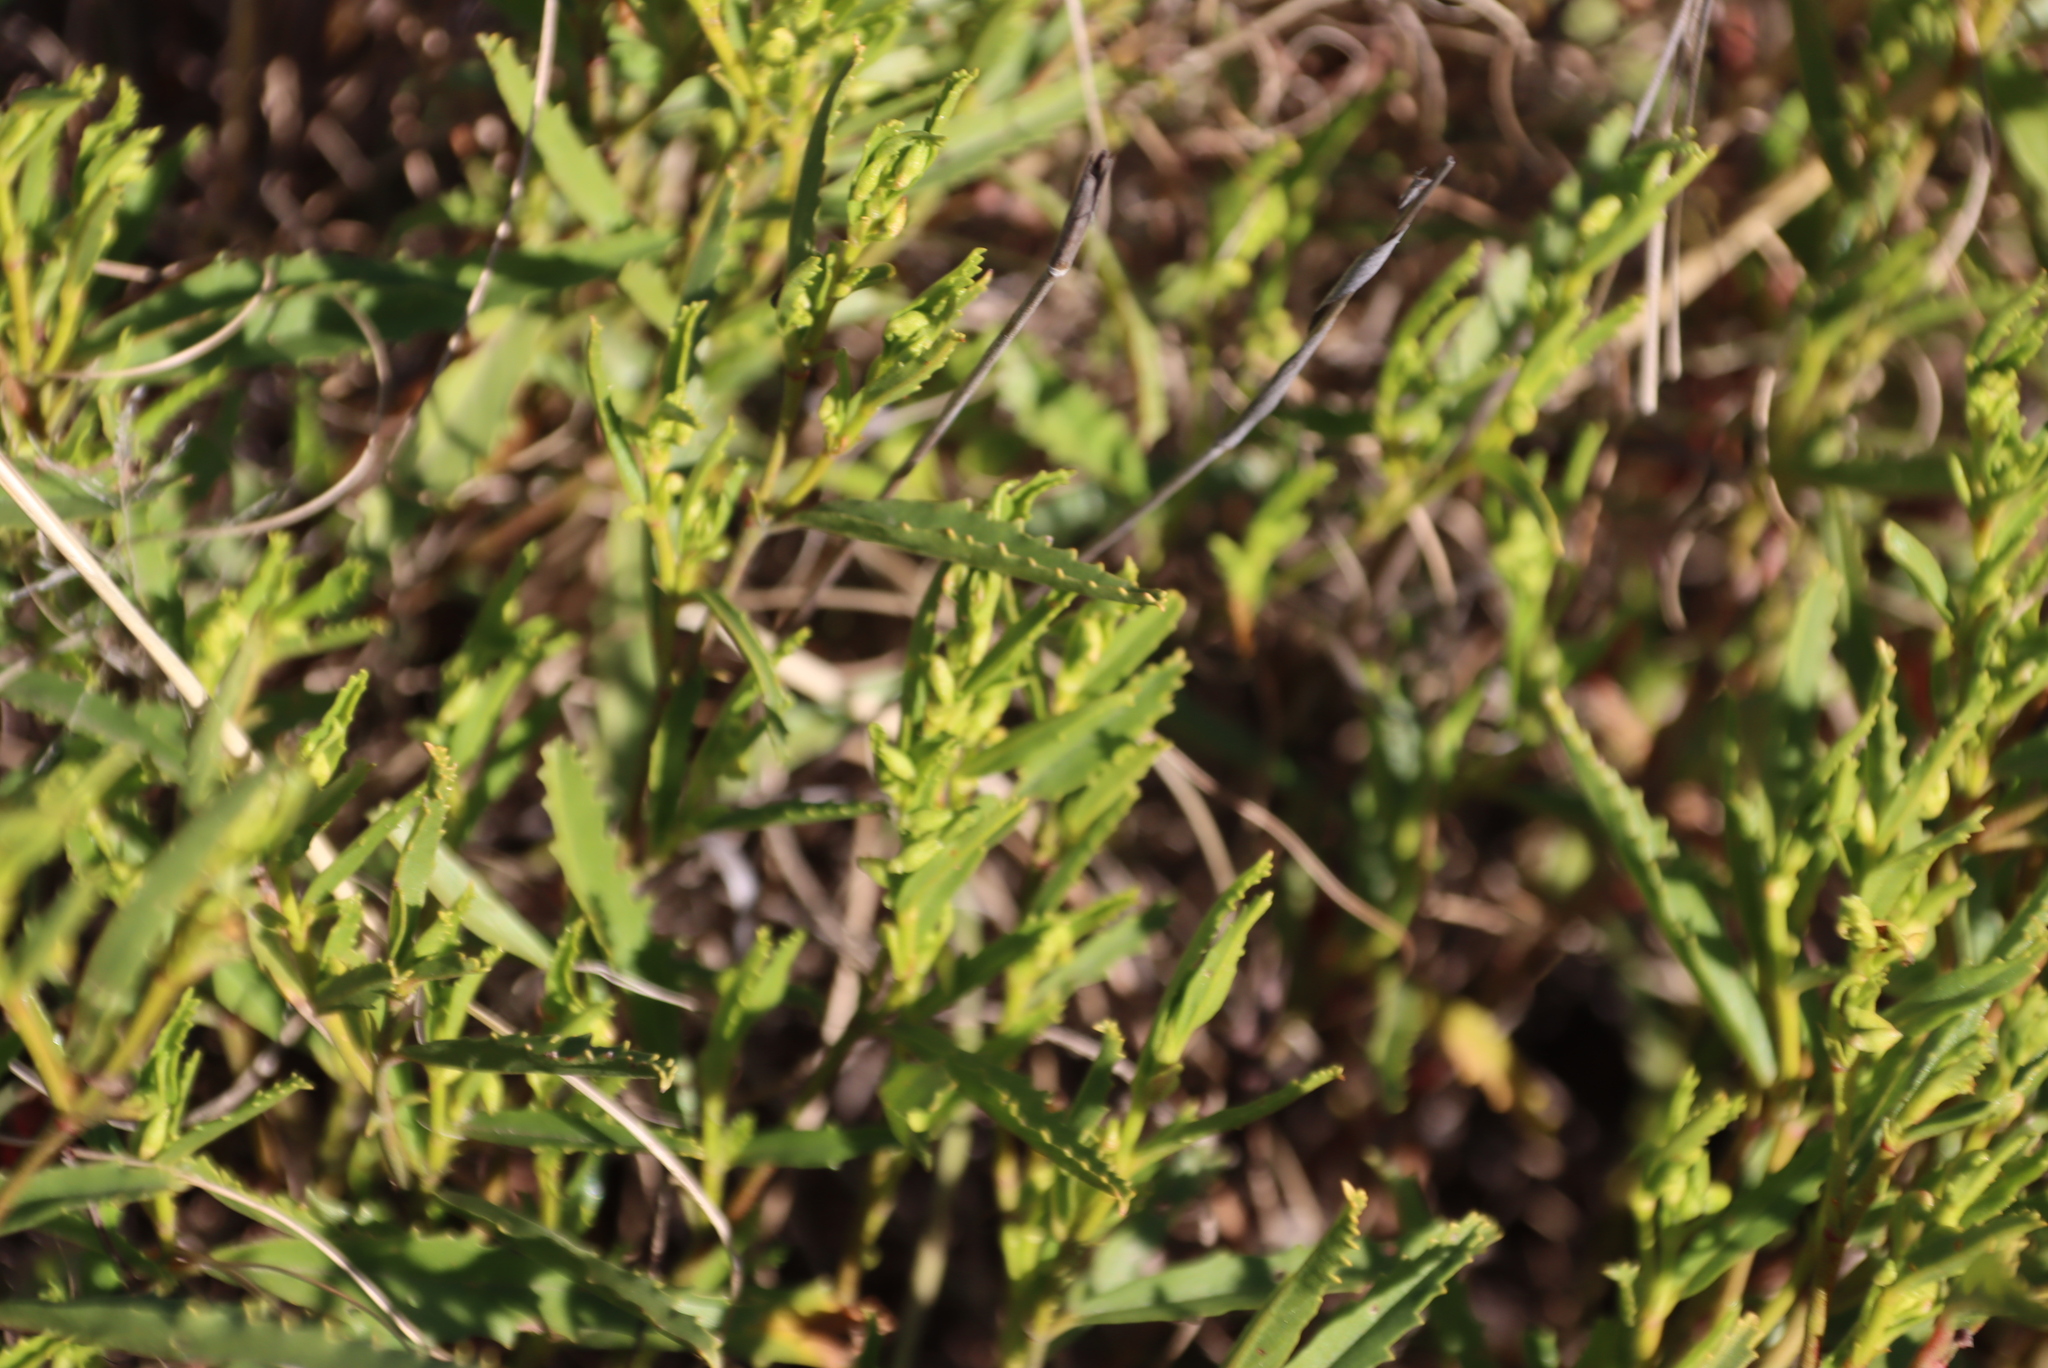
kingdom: Plantae
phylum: Tracheophyta
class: Magnoliopsida
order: Malvales
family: Malvaceae
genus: Hermannia
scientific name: Hermannia saccifera
